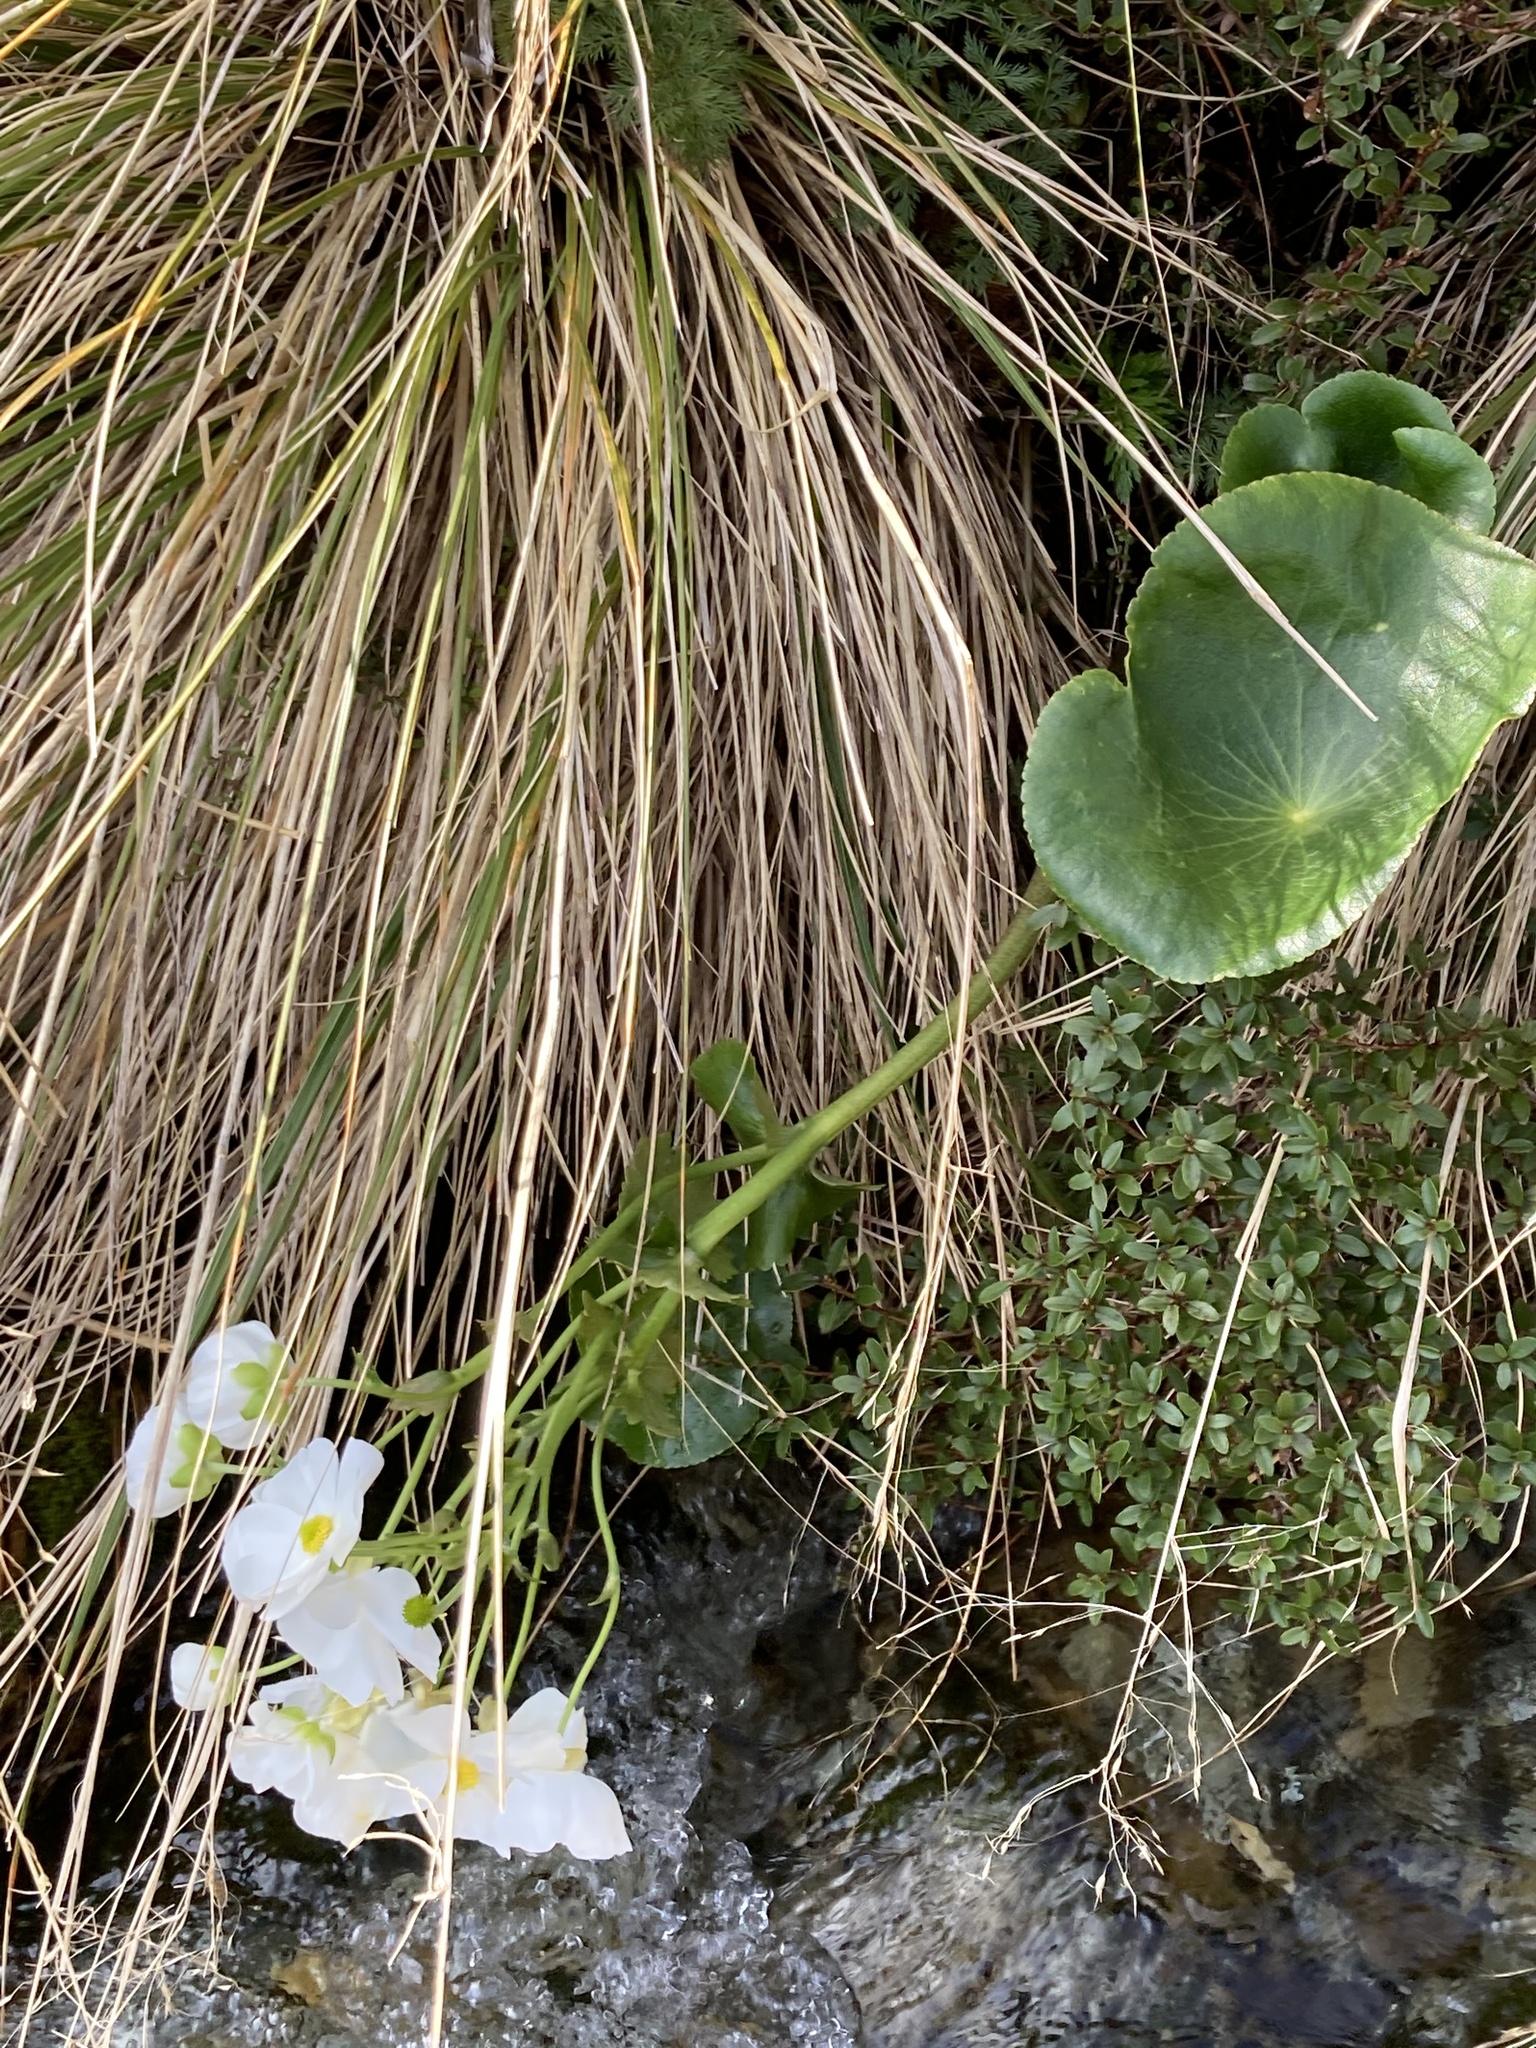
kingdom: Plantae
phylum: Tracheophyta
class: Magnoliopsida
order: Ranunculales
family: Ranunculaceae
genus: Ranunculus
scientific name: Ranunculus lyallii
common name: Mountain-lily
